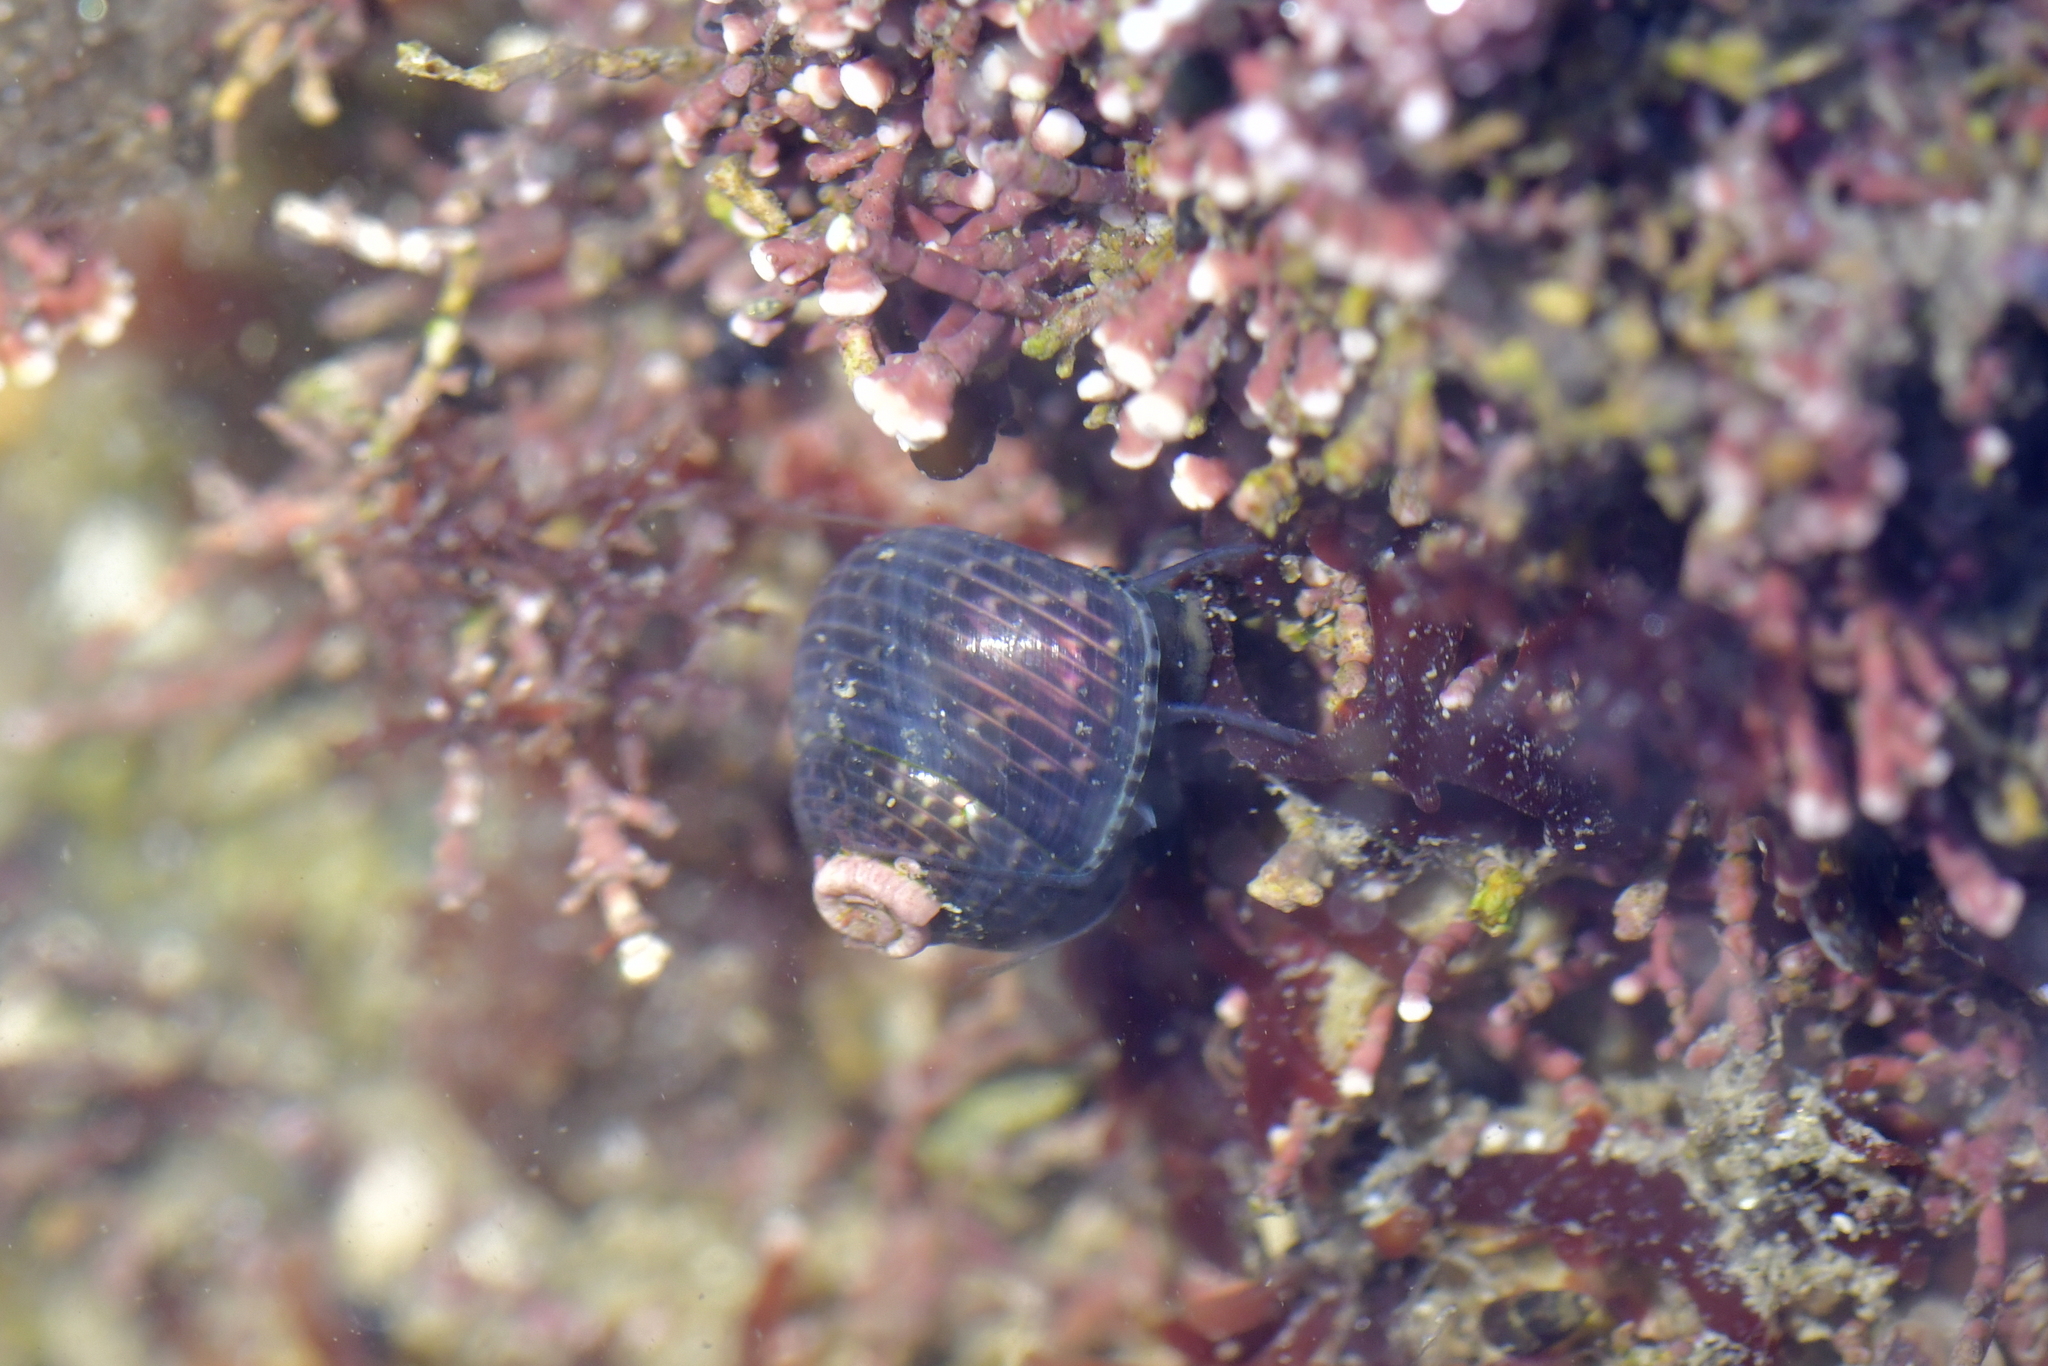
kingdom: Animalia
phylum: Mollusca
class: Gastropoda
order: Trochida
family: Trochidae
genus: Micrelenchus
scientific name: Micrelenchus tessellatus
